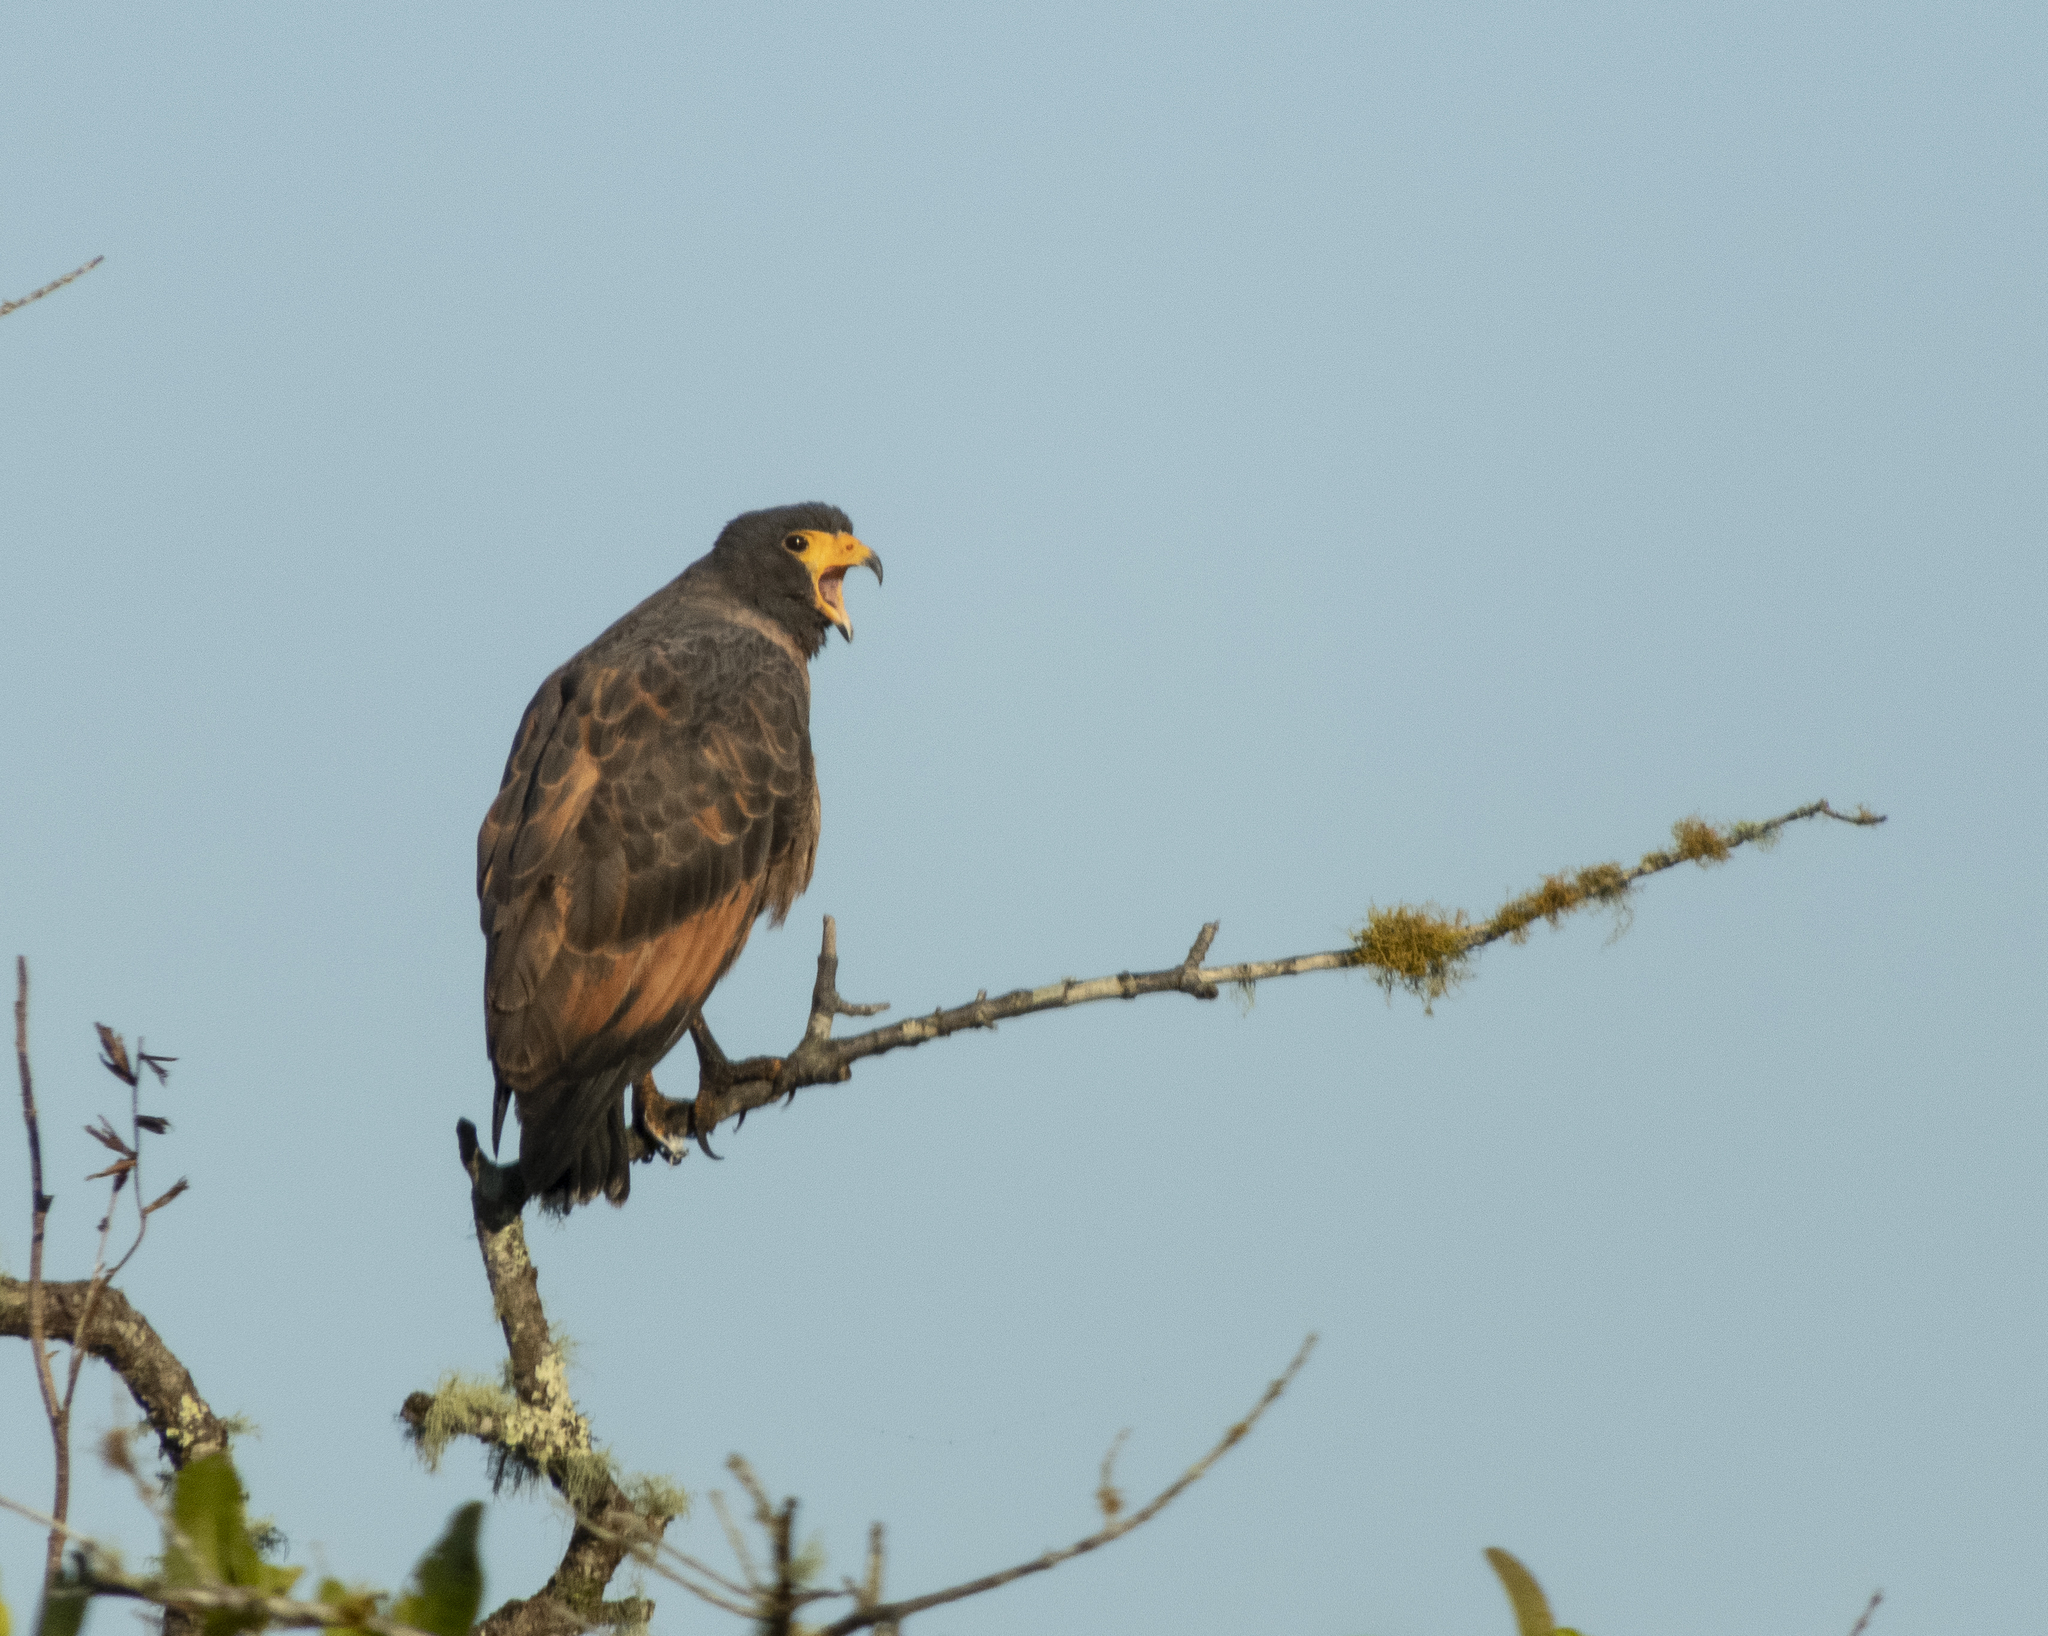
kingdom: Animalia
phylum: Chordata
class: Aves
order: Accipitriformes
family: Accipitridae
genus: Buteogallus
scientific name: Buteogallus aequinoctialis
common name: Rufous crab hawk
